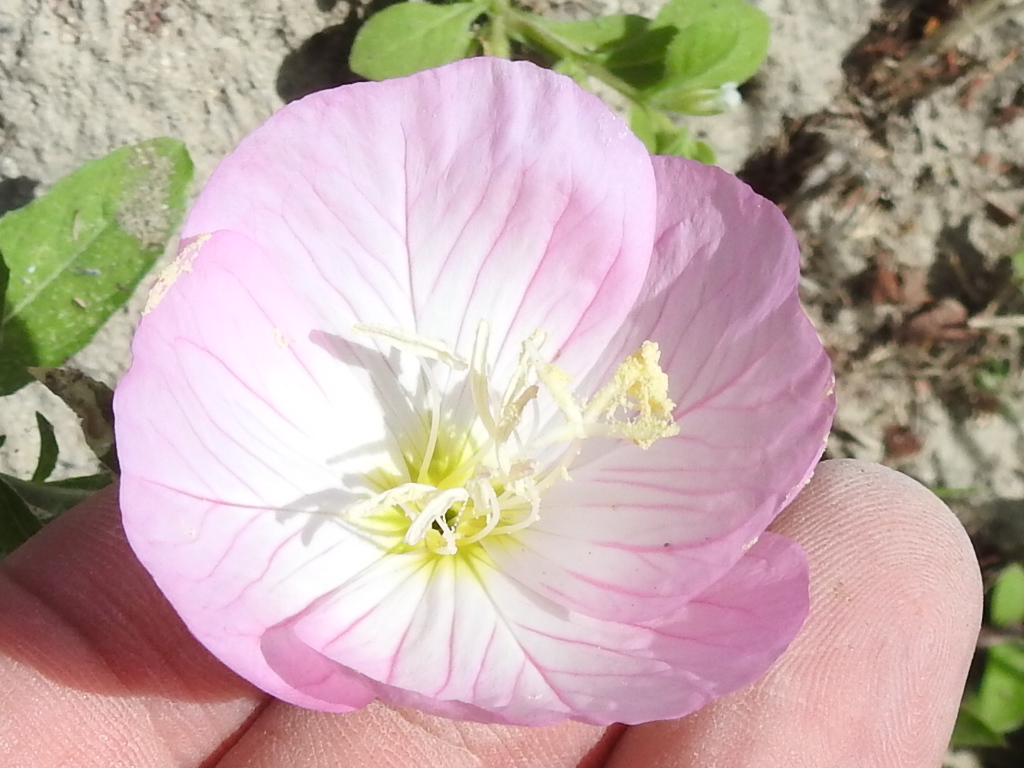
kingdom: Plantae
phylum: Tracheophyta
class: Magnoliopsida
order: Myrtales
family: Onagraceae
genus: Oenothera
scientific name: Oenothera speciosa
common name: White evening-primrose
